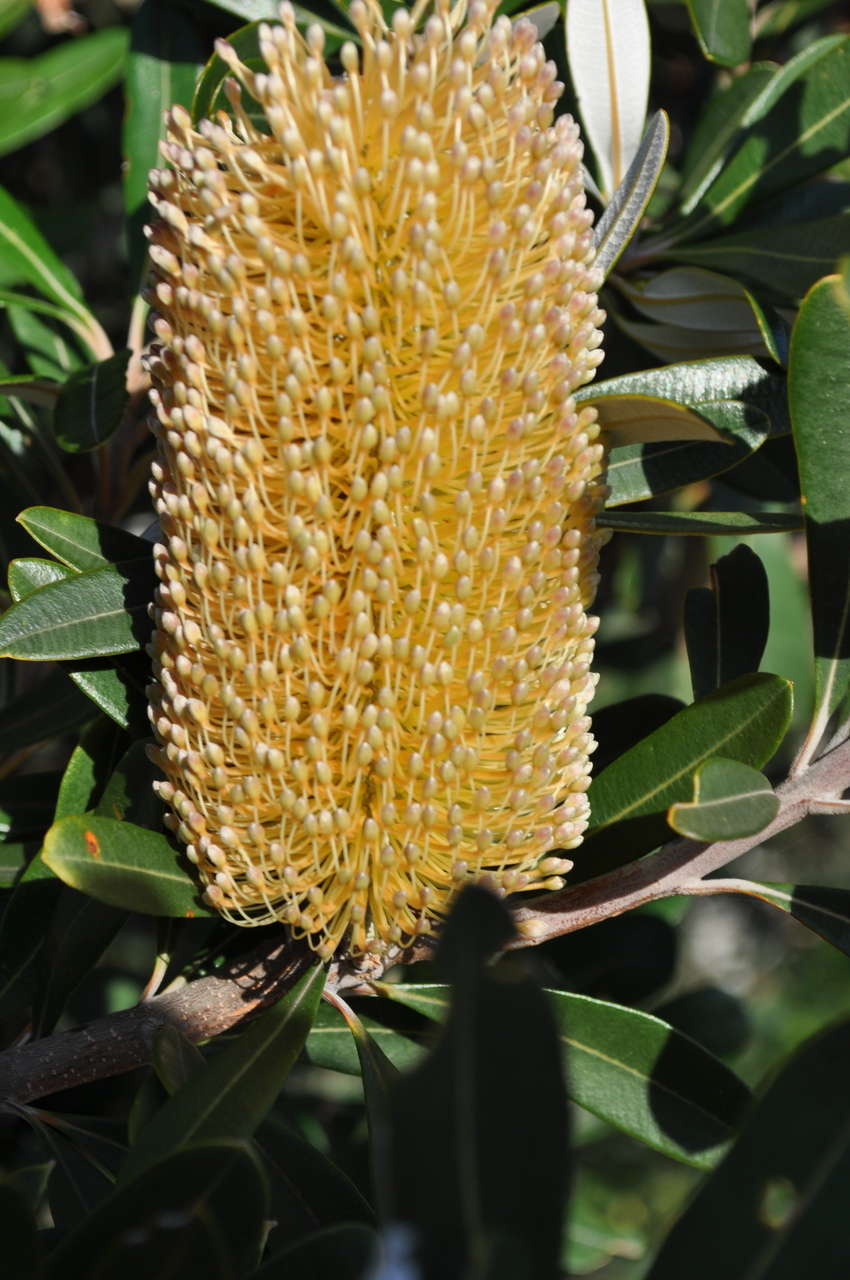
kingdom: Plantae
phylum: Tracheophyta
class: Magnoliopsida
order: Proteales
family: Proteaceae
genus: Banksia
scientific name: Banksia integrifolia
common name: White-honeysuckle
